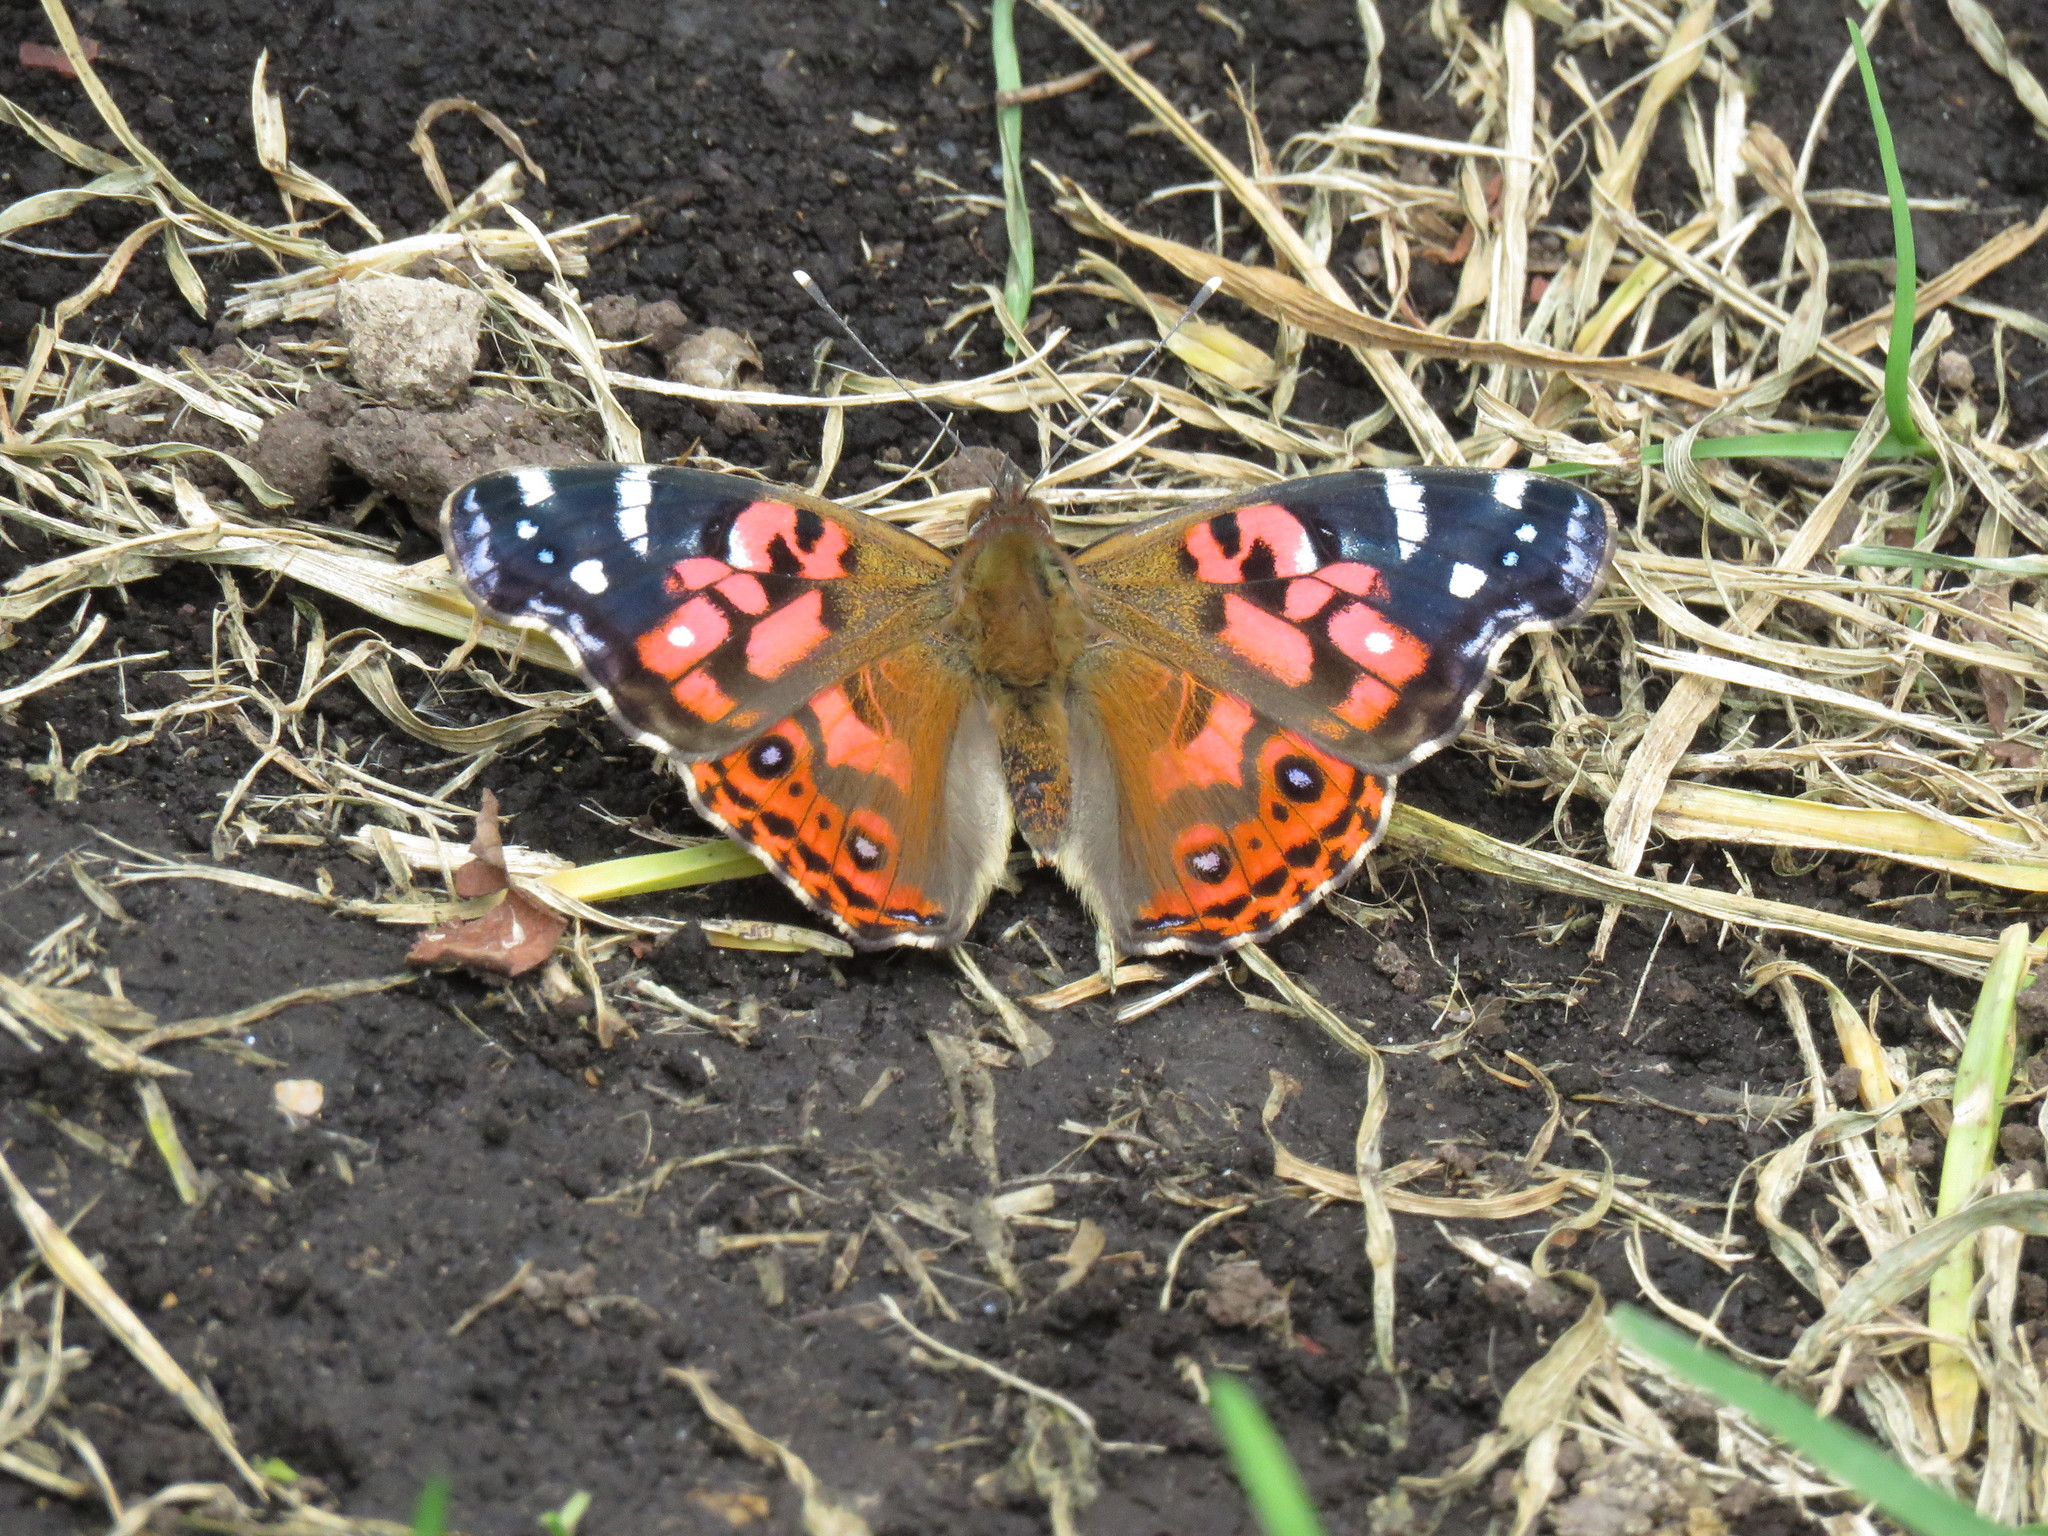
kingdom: Animalia
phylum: Arthropoda
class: Insecta
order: Lepidoptera
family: Nymphalidae
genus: Vanessa
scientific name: Vanessa braziliensis
